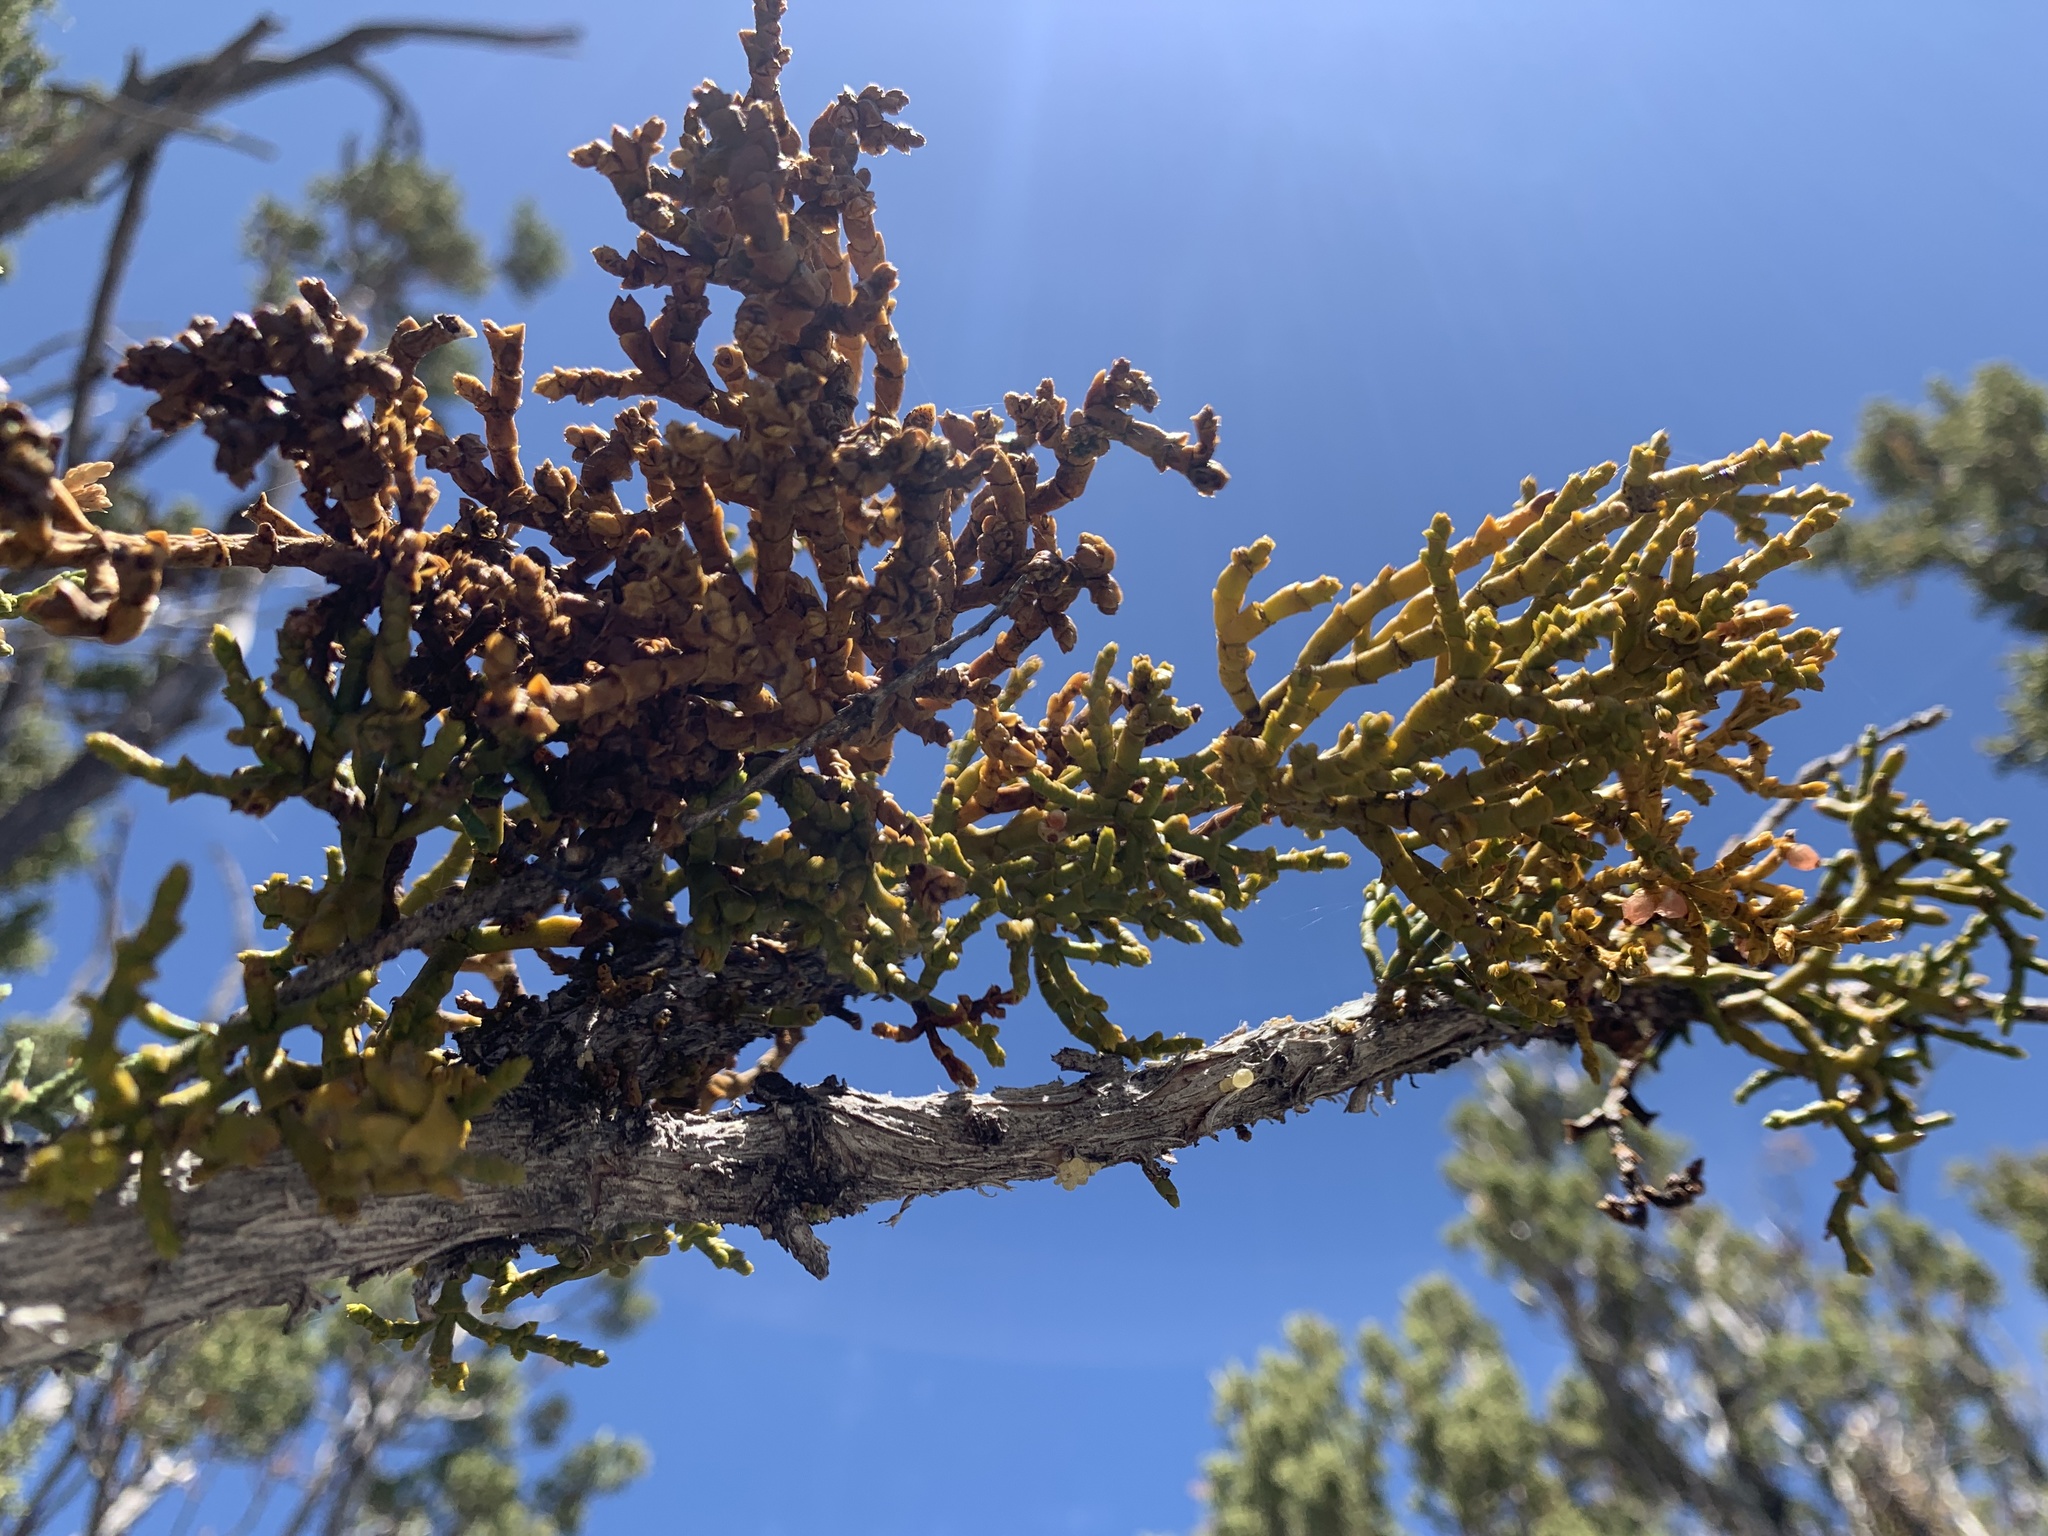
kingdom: Plantae
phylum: Tracheophyta
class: Magnoliopsida
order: Santalales
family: Viscaceae
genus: Phoradendron
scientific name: Phoradendron juniperinum
